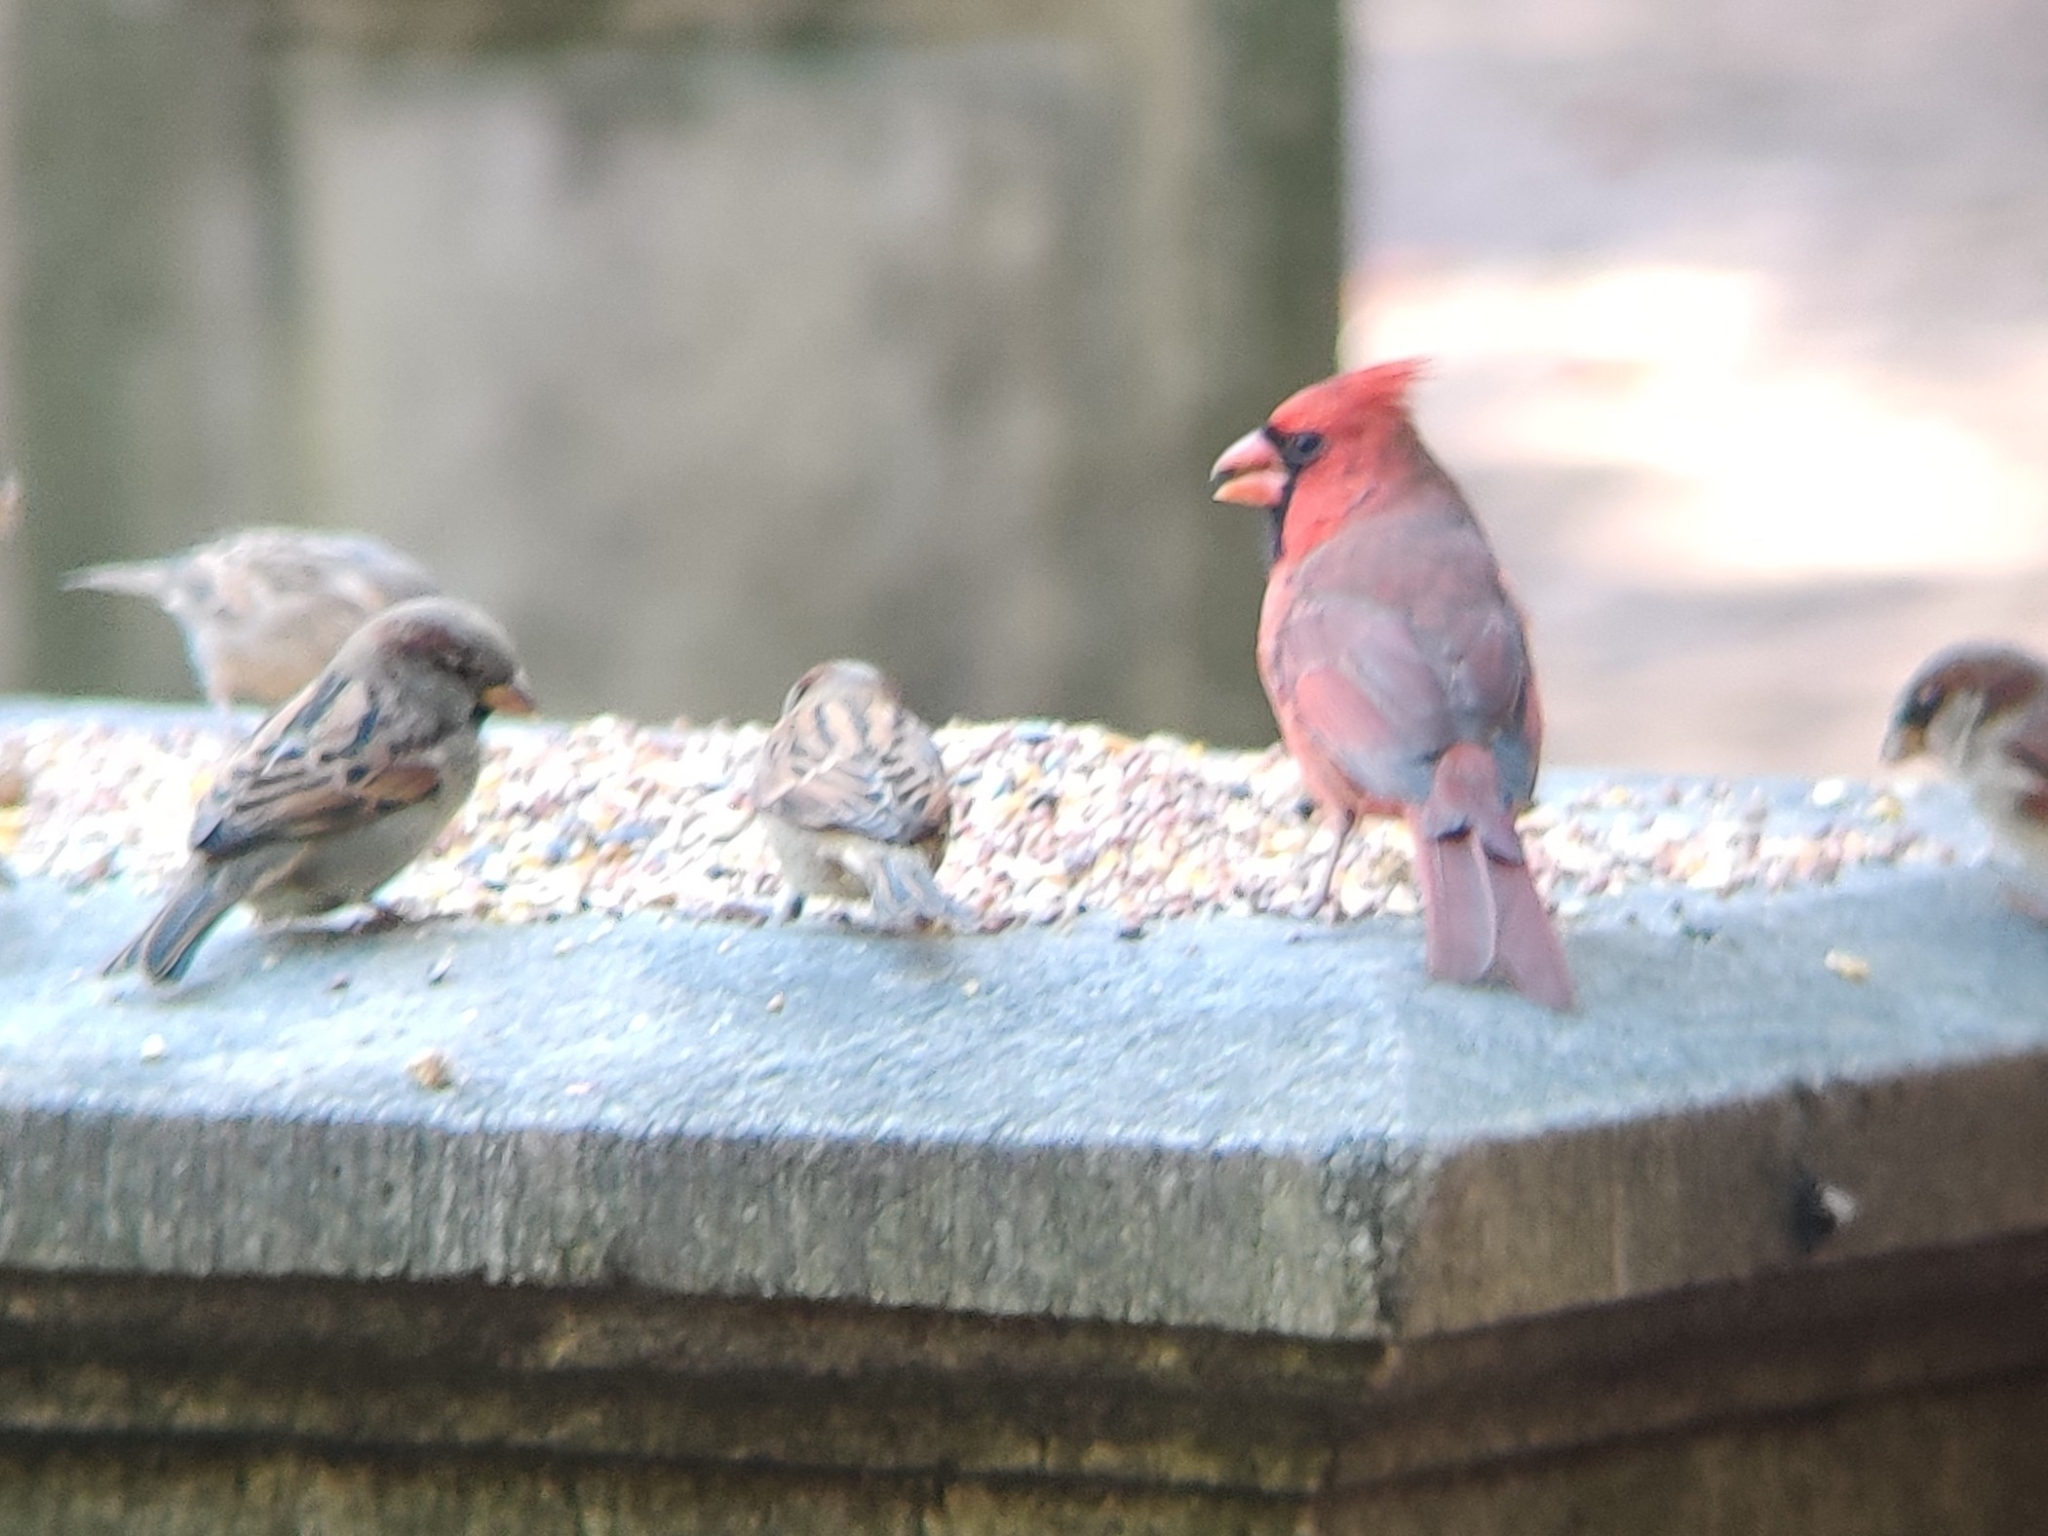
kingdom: Animalia
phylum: Chordata
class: Aves
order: Passeriformes
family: Cardinalidae
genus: Cardinalis
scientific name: Cardinalis cardinalis
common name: Northern cardinal
